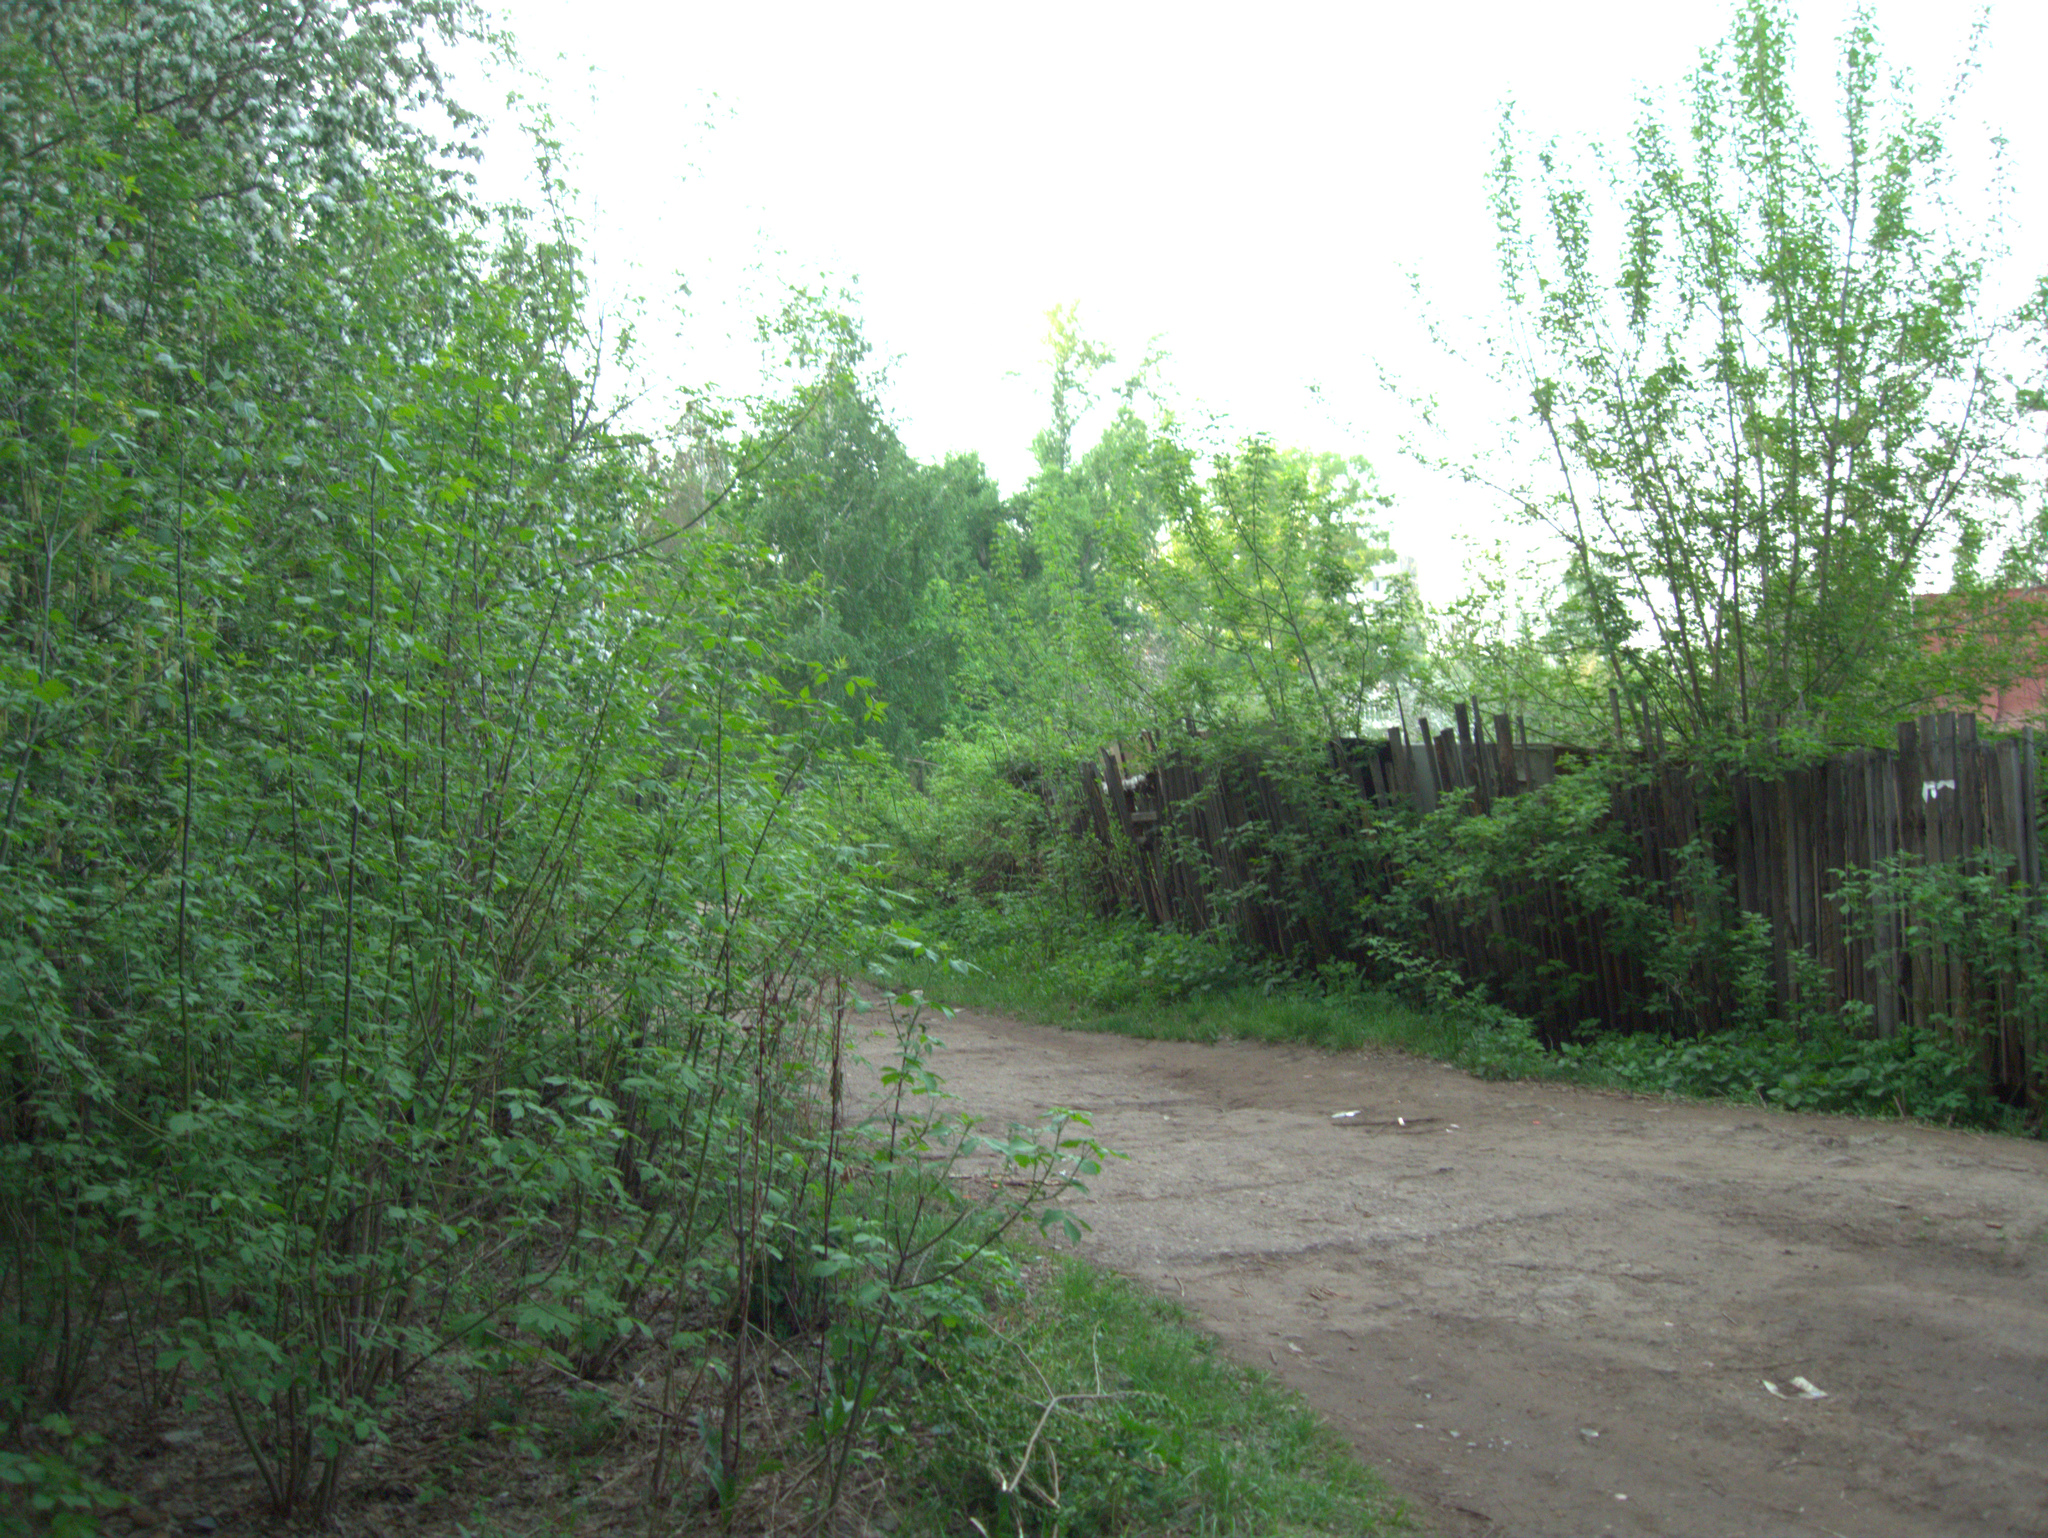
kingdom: Plantae
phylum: Tracheophyta
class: Magnoliopsida
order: Sapindales
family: Sapindaceae
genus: Acer
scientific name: Acer negundo
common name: Ashleaf maple
